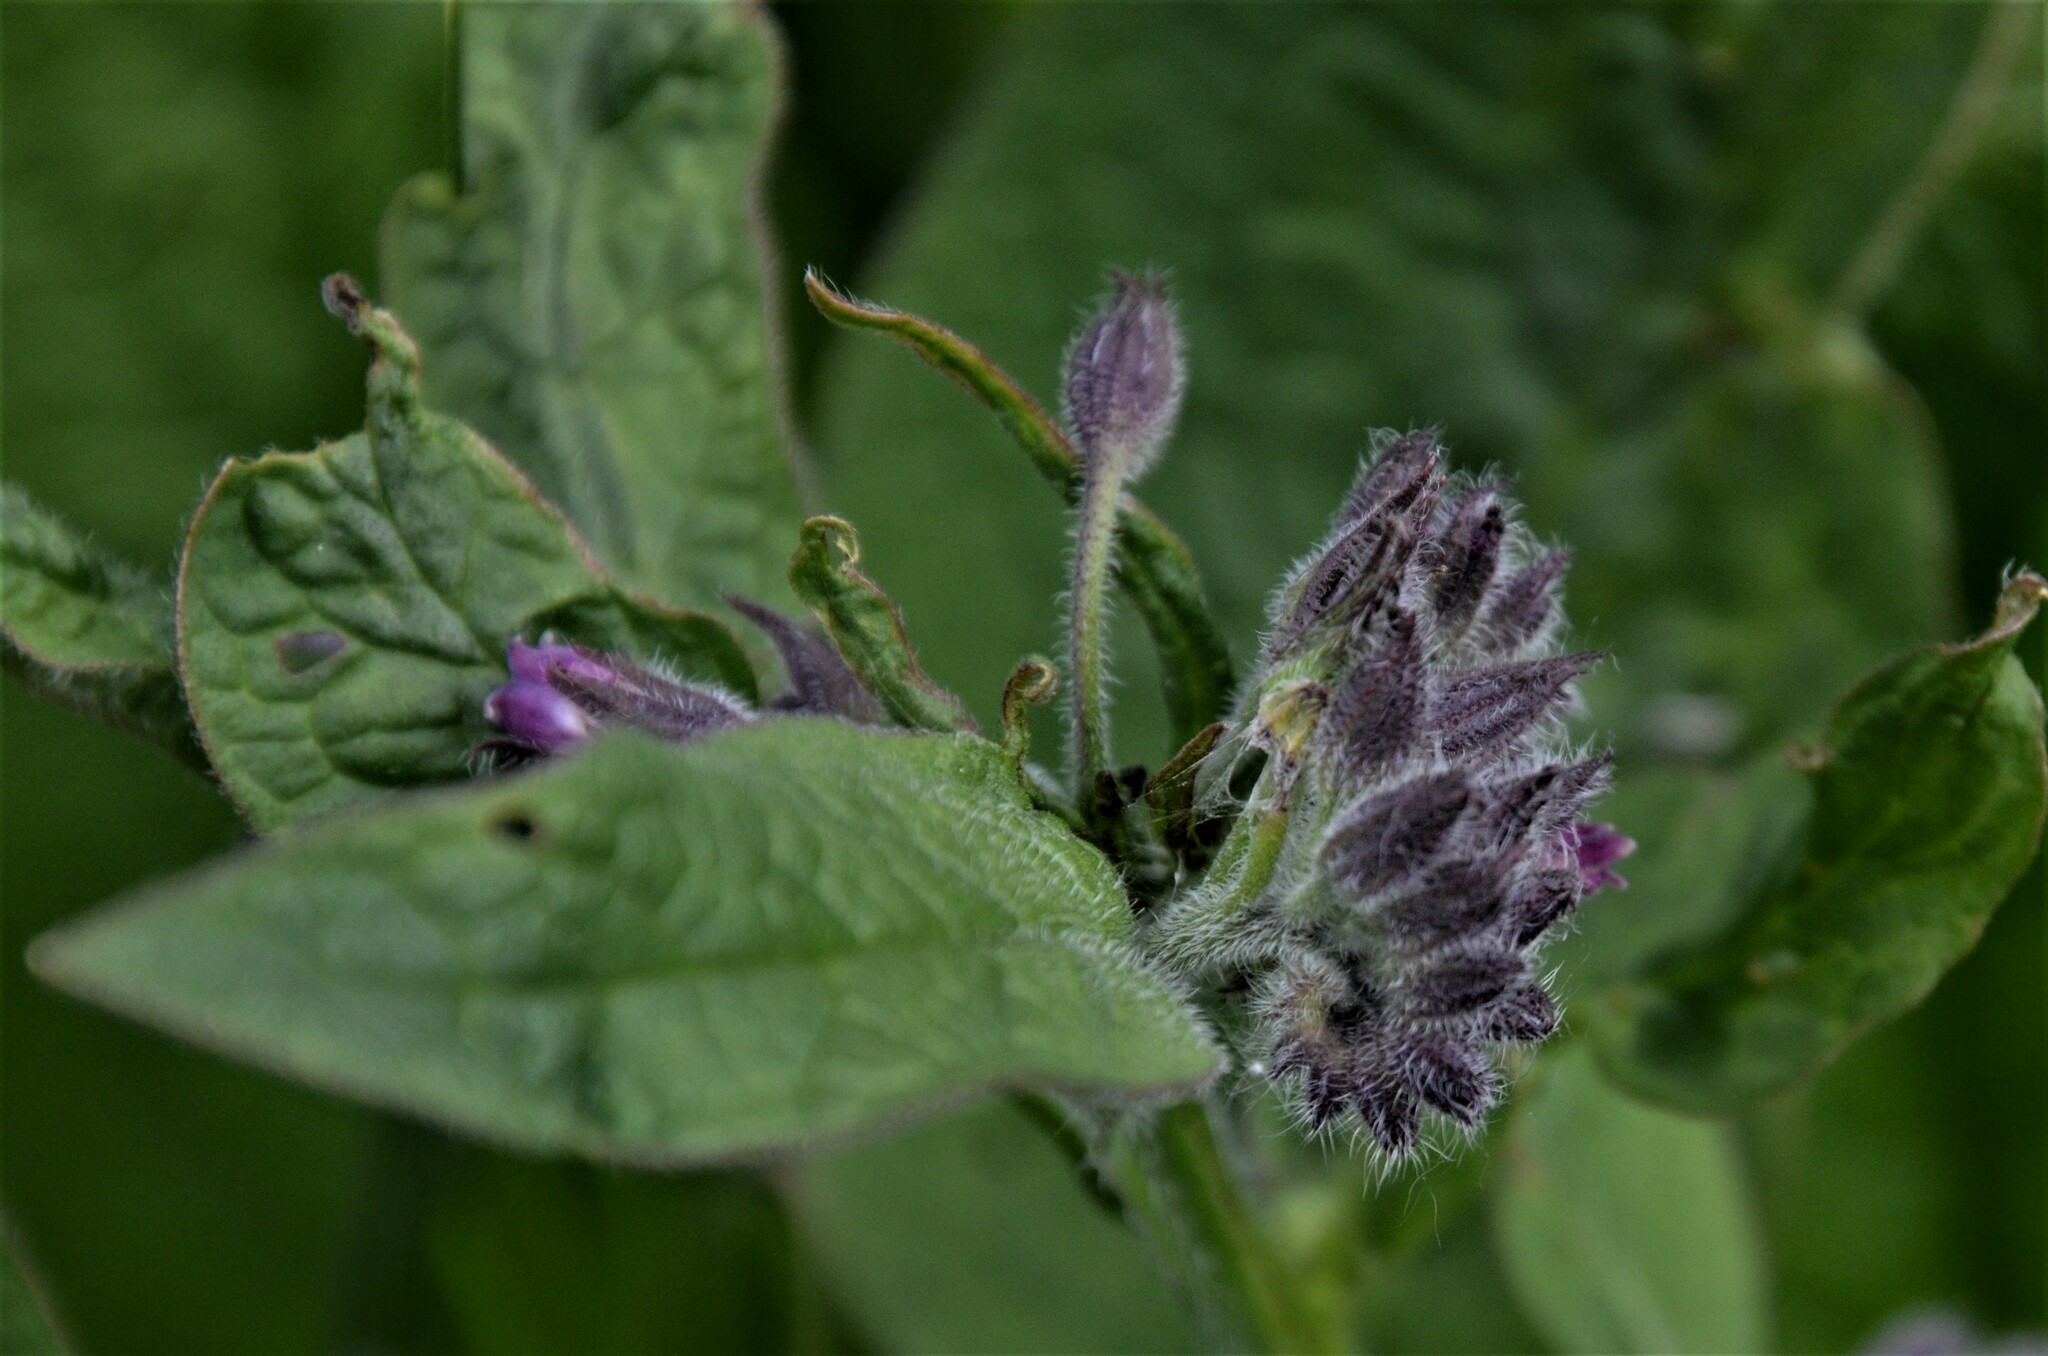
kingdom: Plantae
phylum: Tracheophyta
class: Magnoliopsida
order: Boraginales
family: Boraginaceae
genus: Symphytum
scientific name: Symphytum officinale
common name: Common comfrey
